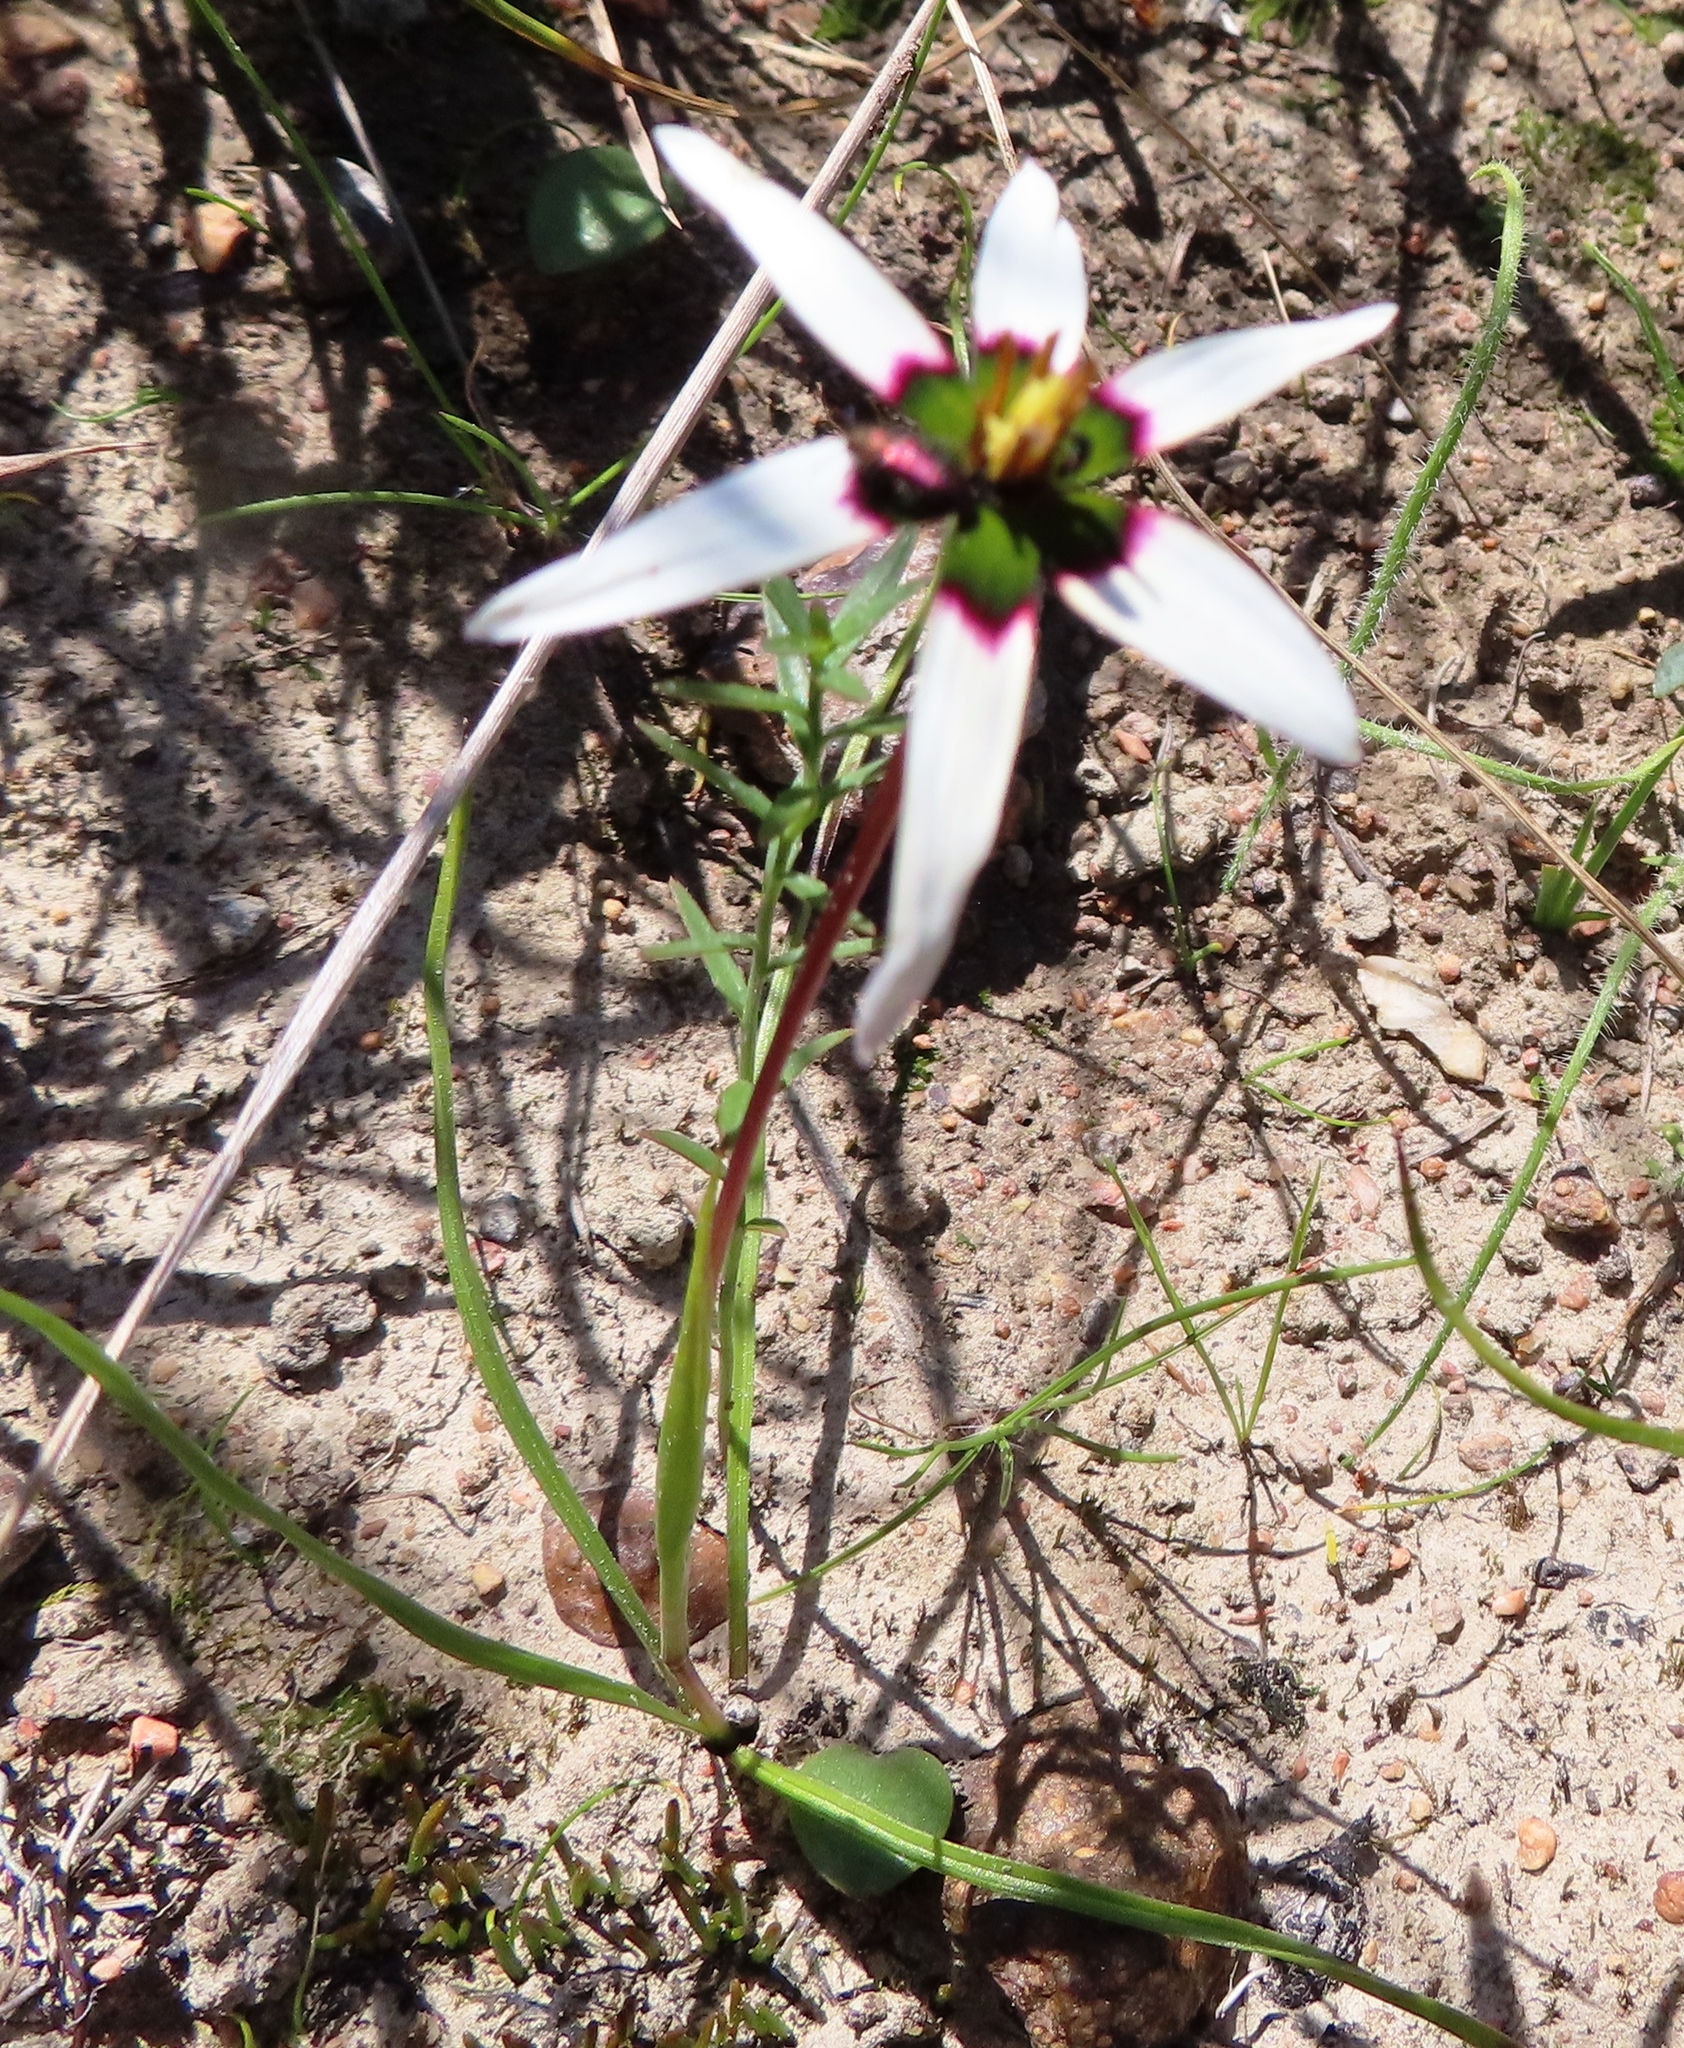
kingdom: Plantae
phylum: Tracheophyta
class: Liliopsida
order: Asparagales
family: Hypoxidaceae
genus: Pauridia
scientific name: Pauridia capensis
